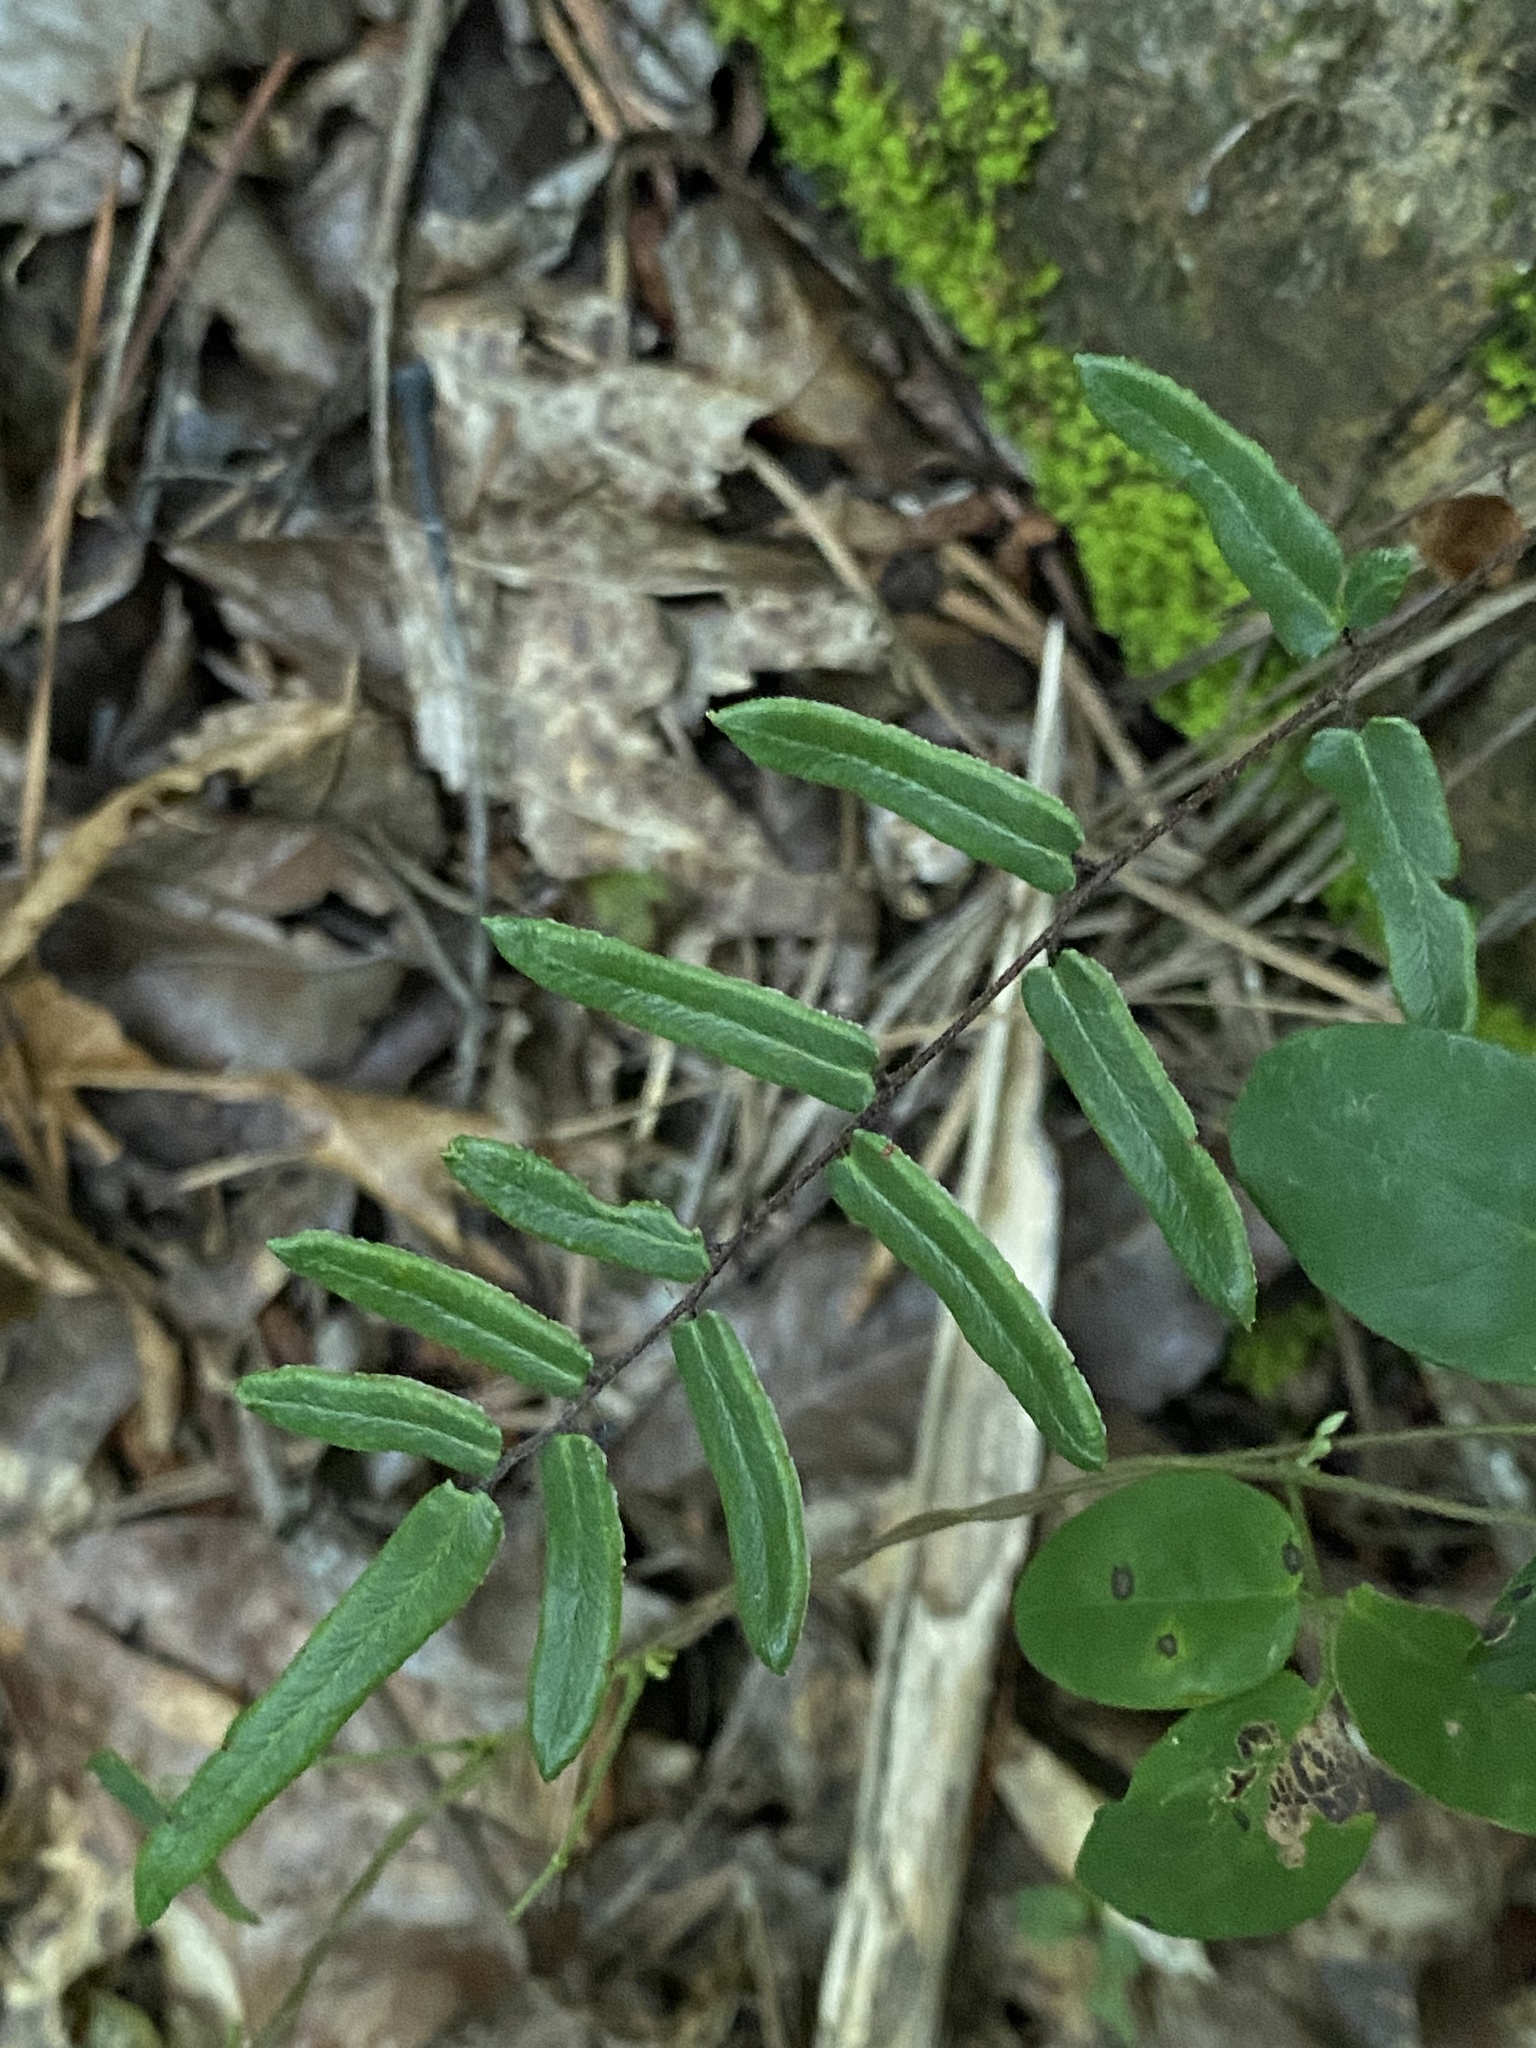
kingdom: Plantae
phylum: Tracheophyta
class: Polypodiopsida
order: Polypodiales
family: Pteridaceae
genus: Pellaea
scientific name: Pellaea atropurpurea
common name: Hairy cliffbrake
